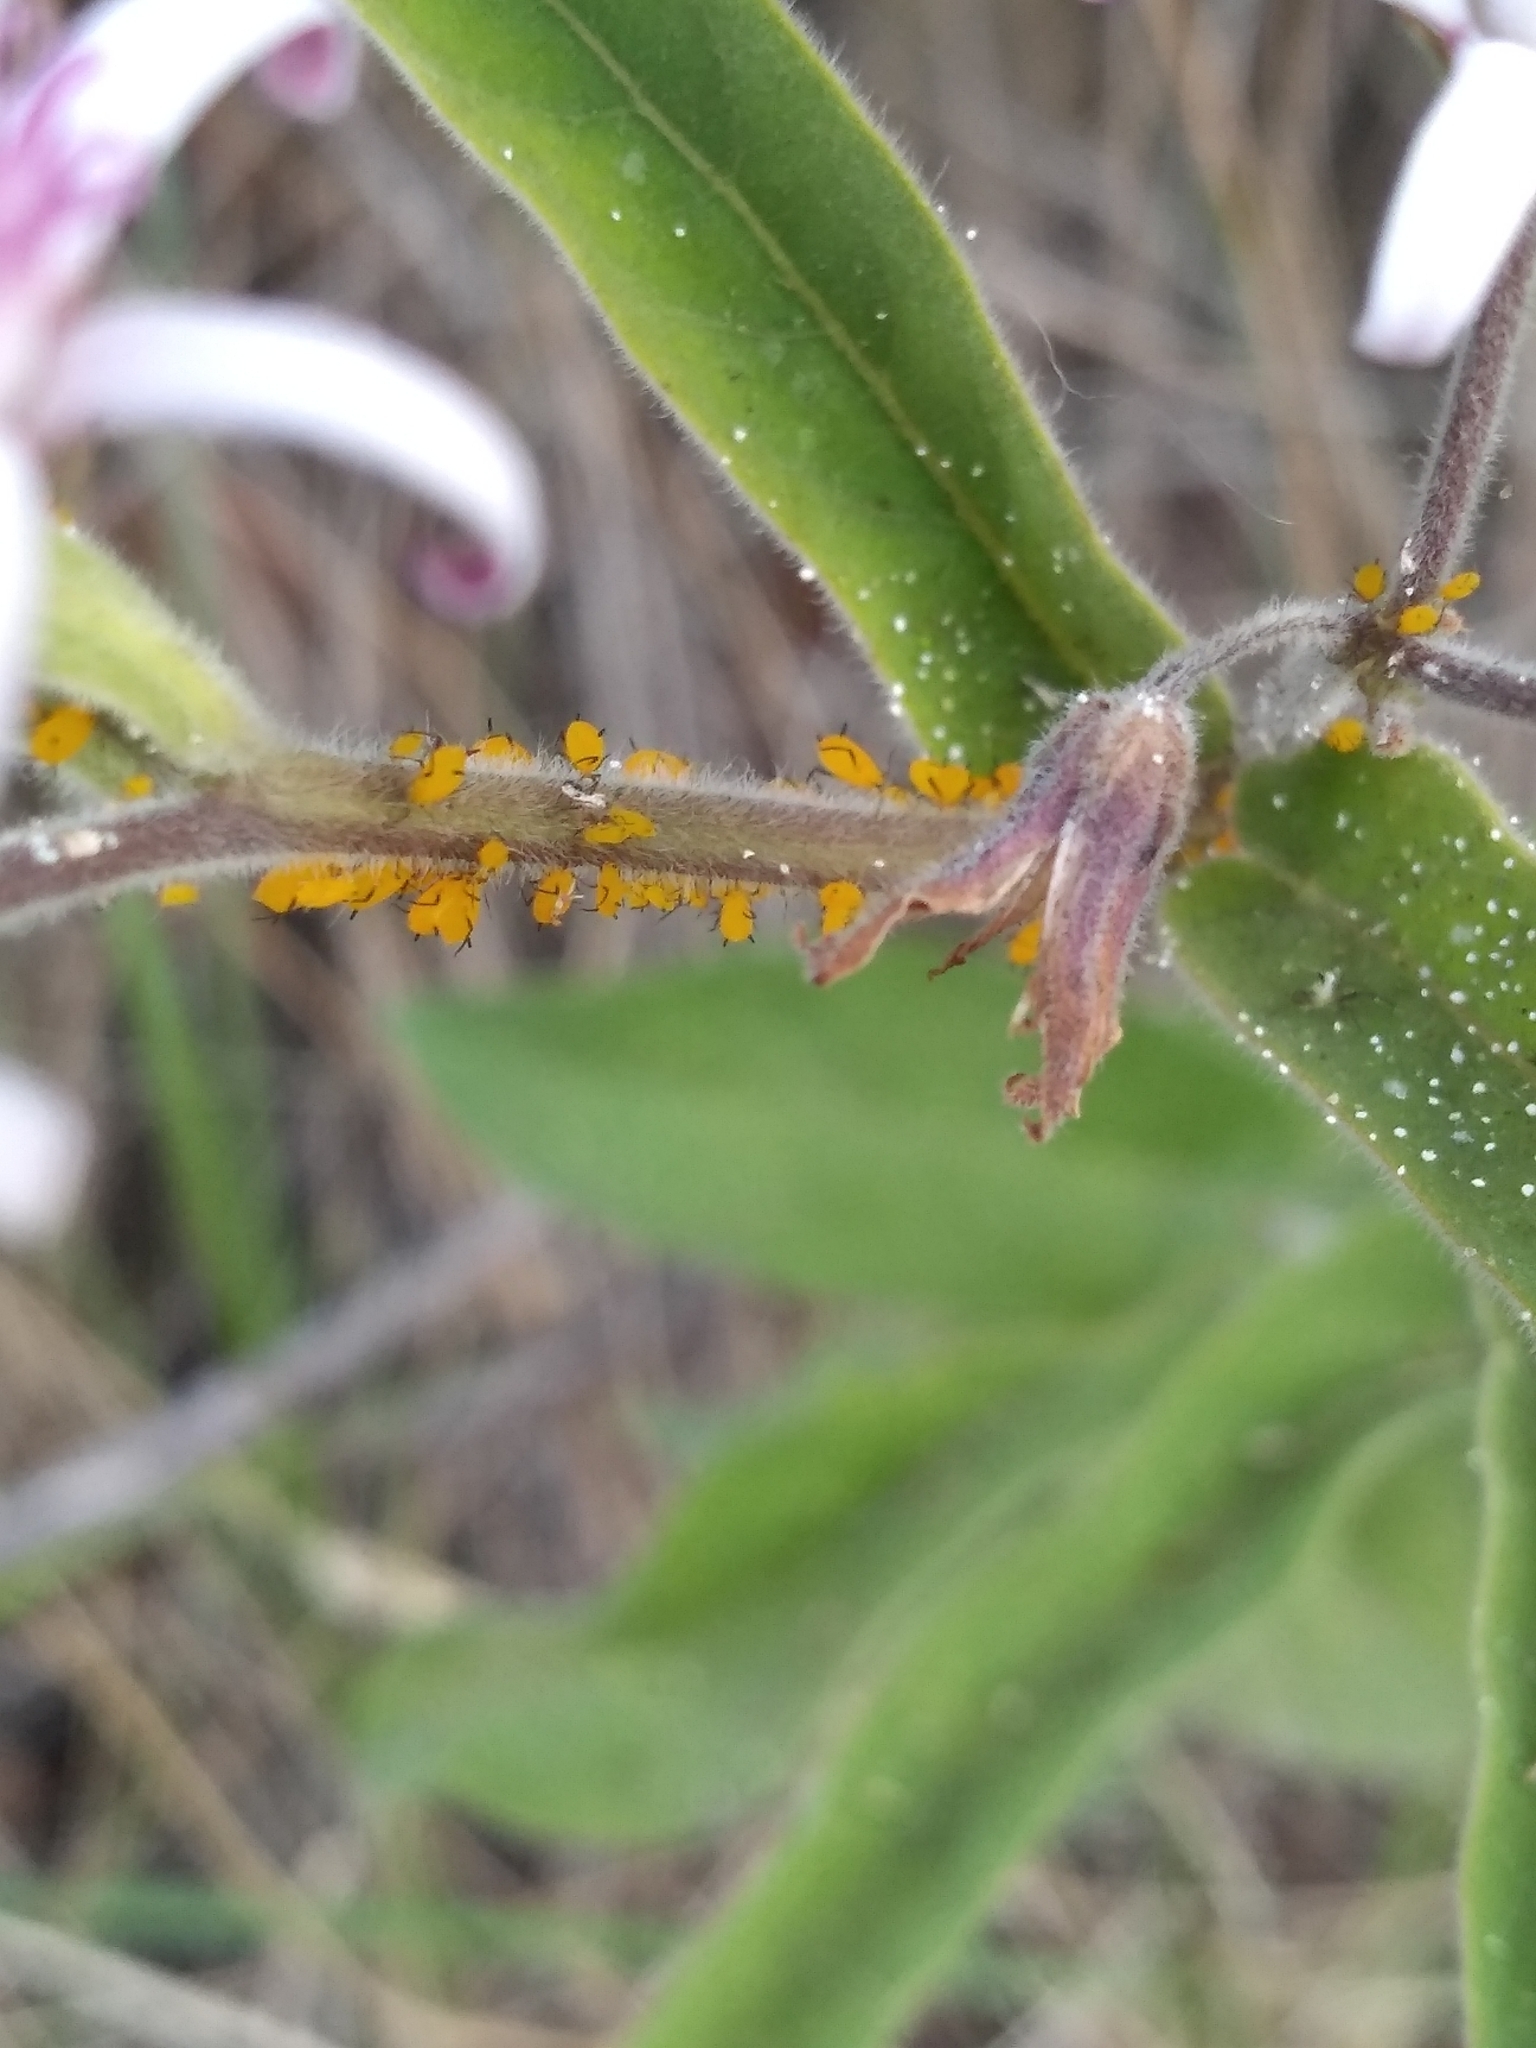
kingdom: Animalia
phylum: Arthropoda
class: Insecta
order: Hemiptera
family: Aphididae
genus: Aphis
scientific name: Aphis nerii
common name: Oleander aphid
